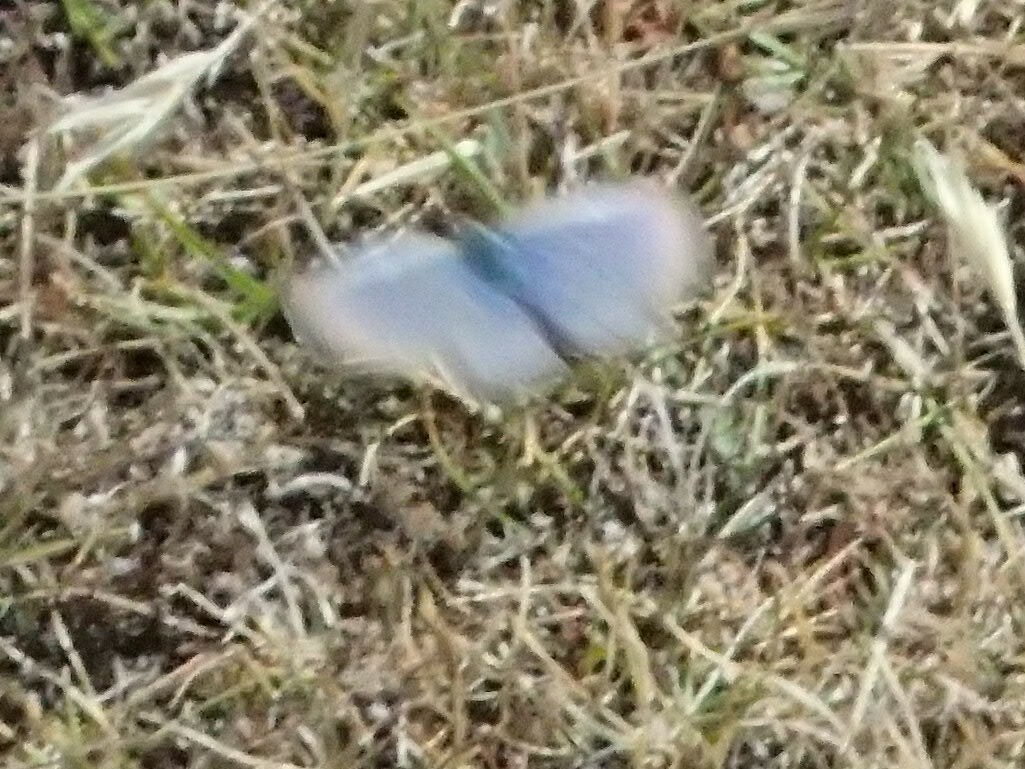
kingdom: Animalia
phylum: Arthropoda
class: Insecta
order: Lepidoptera
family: Lycaenidae
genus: Zizina
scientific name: Zizina labradus
